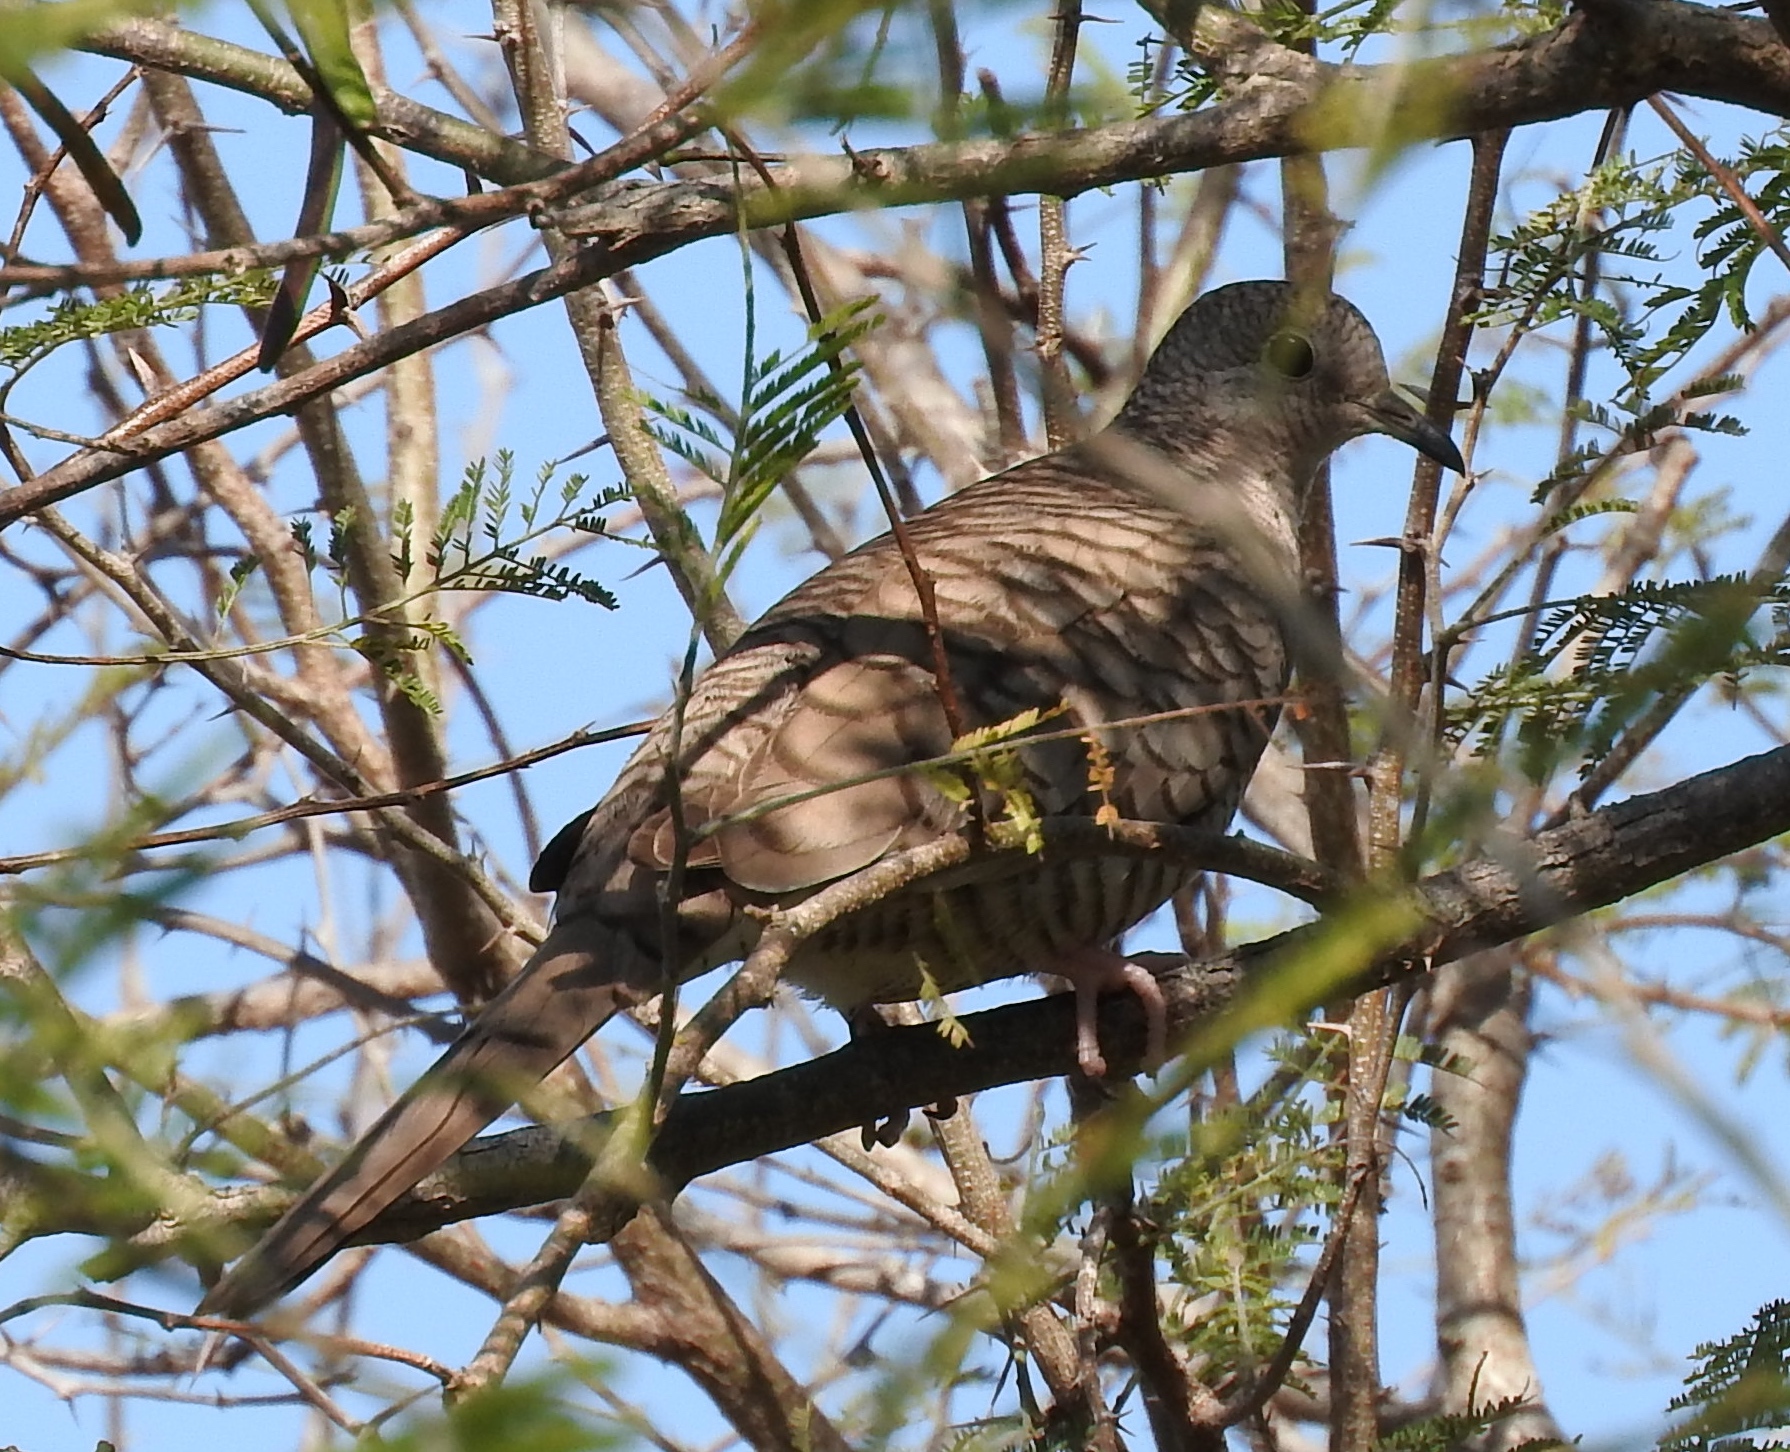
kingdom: Animalia
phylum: Chordata
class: Aves
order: Columbiformes
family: Columbidae
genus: Columbina
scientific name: Columbina inca
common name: Inca dove
